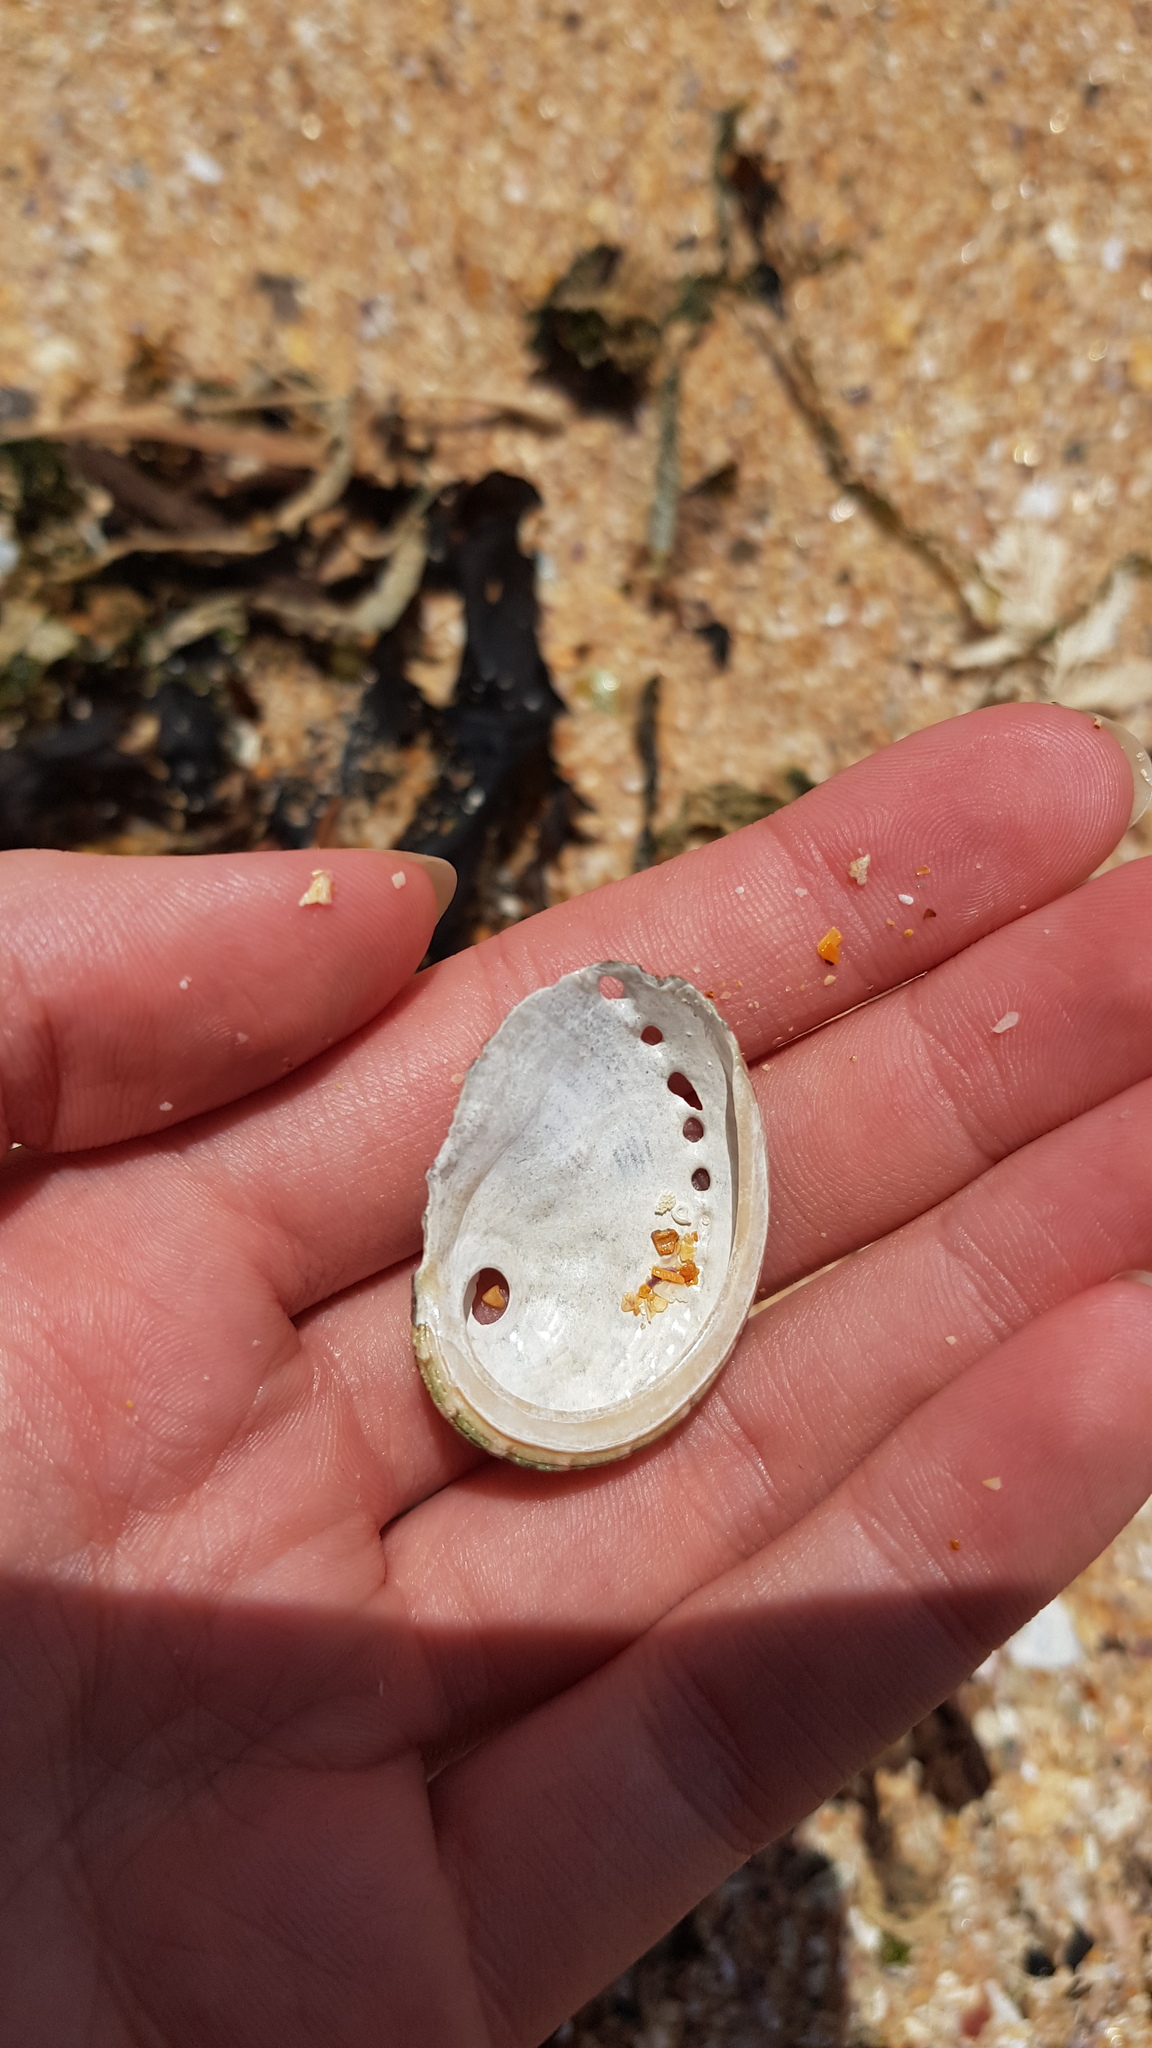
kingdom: Animalia
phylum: Mollusca
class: Gastropoda
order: Lepetellida
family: Haliotidae
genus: Haliotis
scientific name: Haliotis coccoradiata
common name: Reddish-rayed abalone
